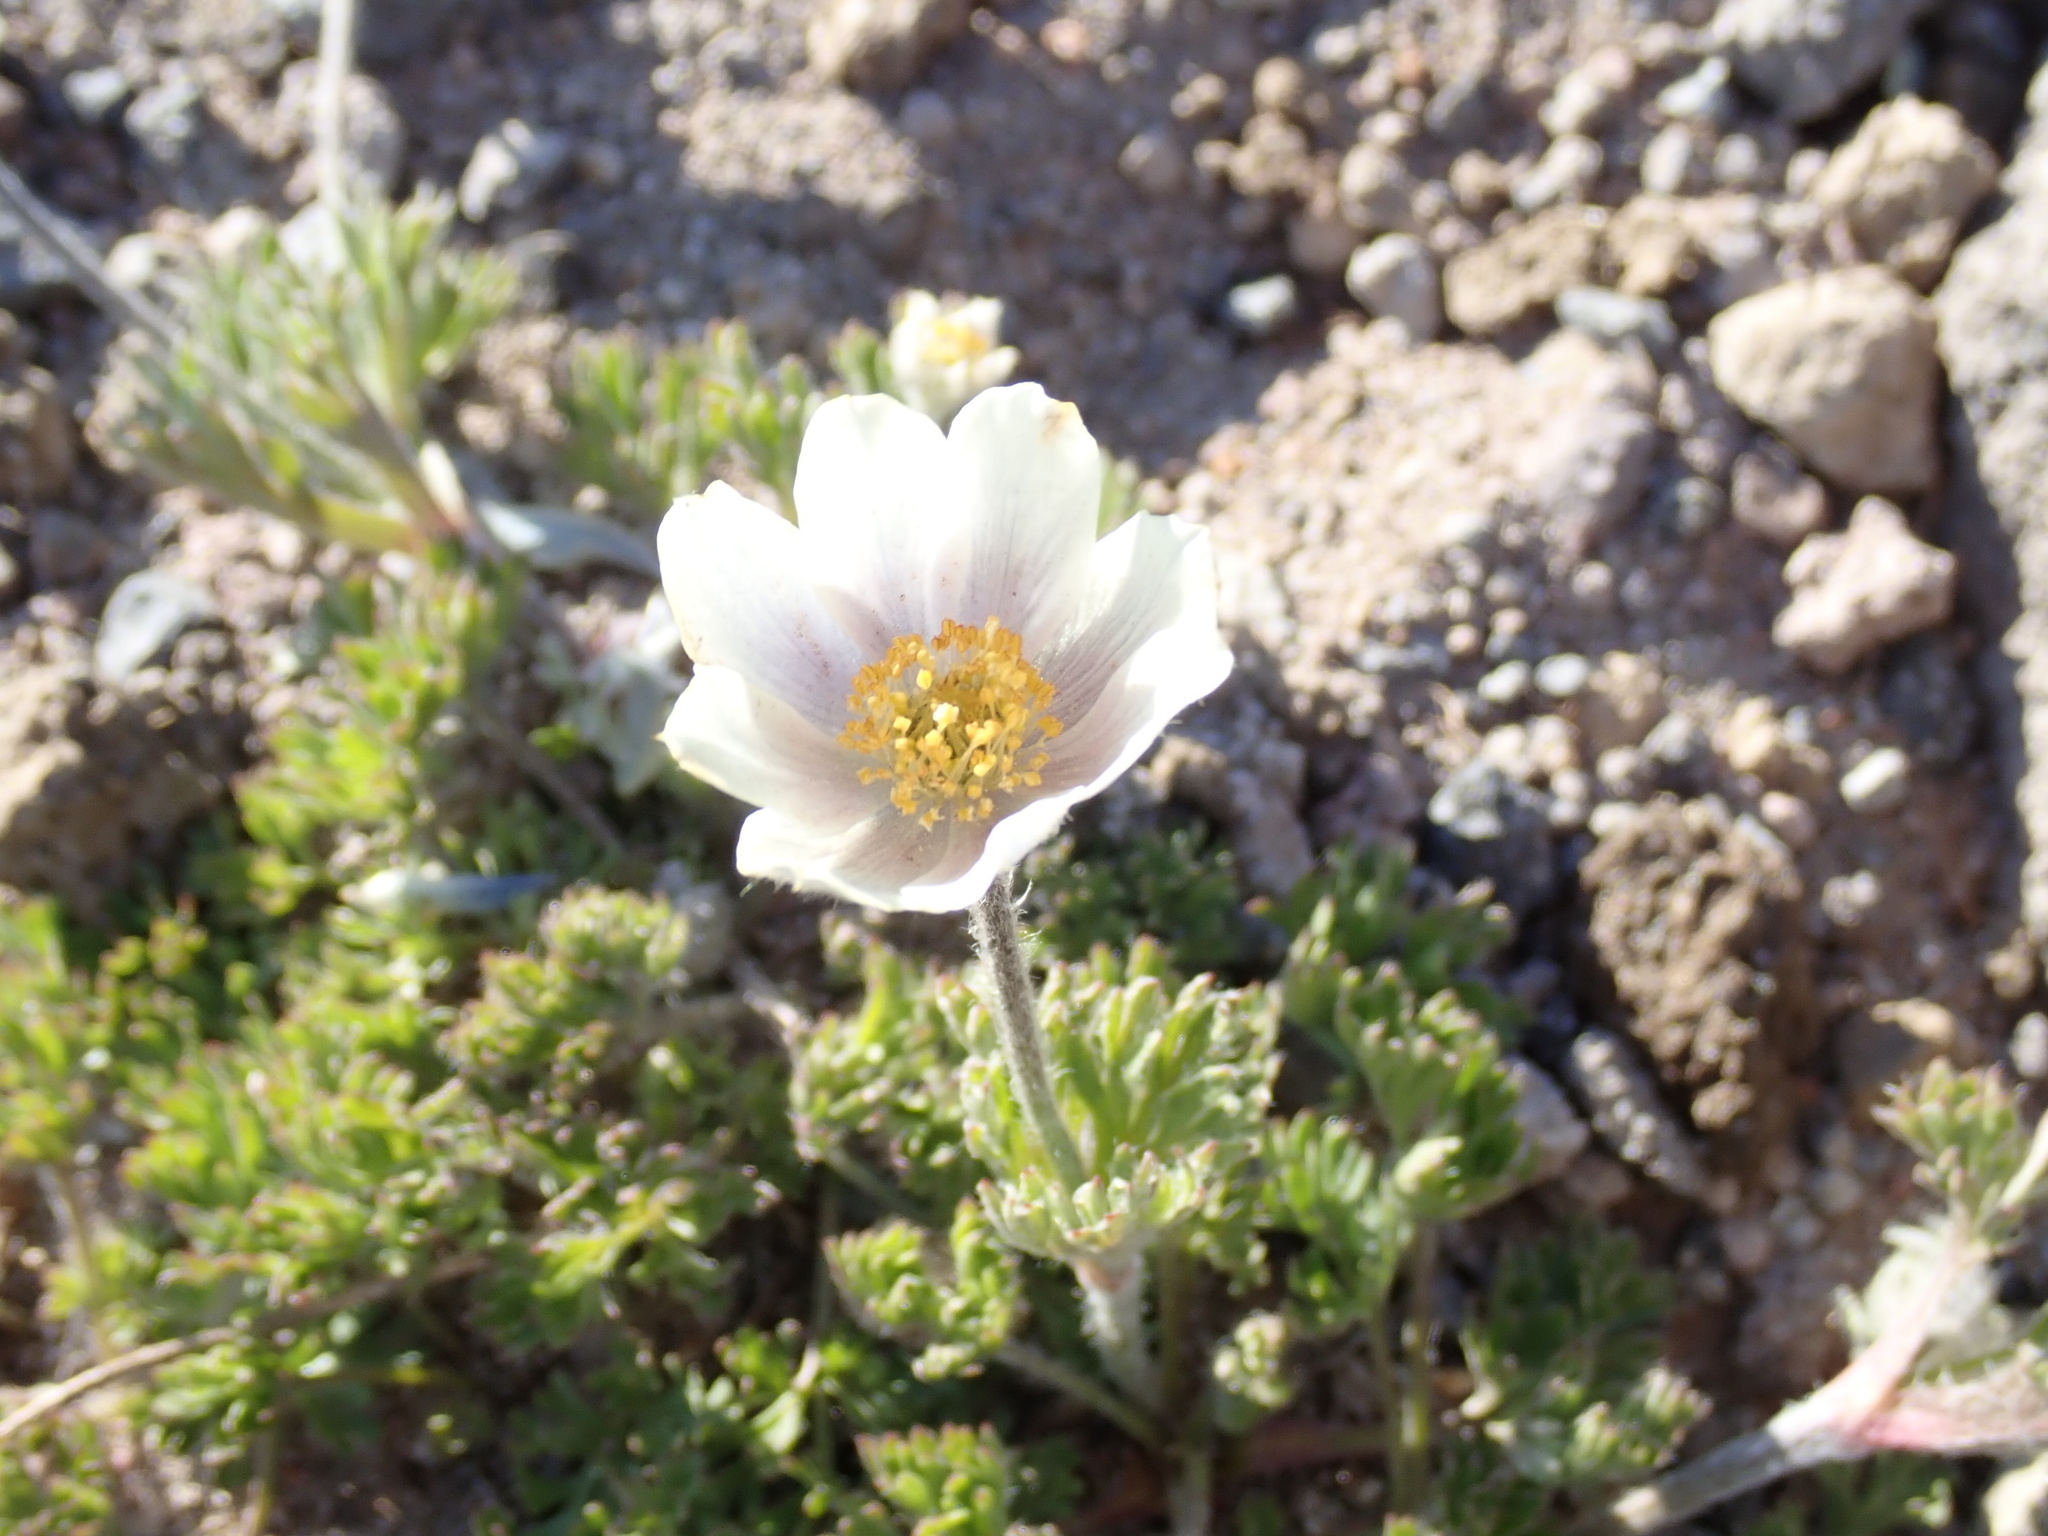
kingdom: Plantae
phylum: Tracheophyta
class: Magnoliopsida
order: Ranunculales
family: Ranunculaceae
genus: Anemone
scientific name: Anemone drummondii
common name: Drummond's anemone
